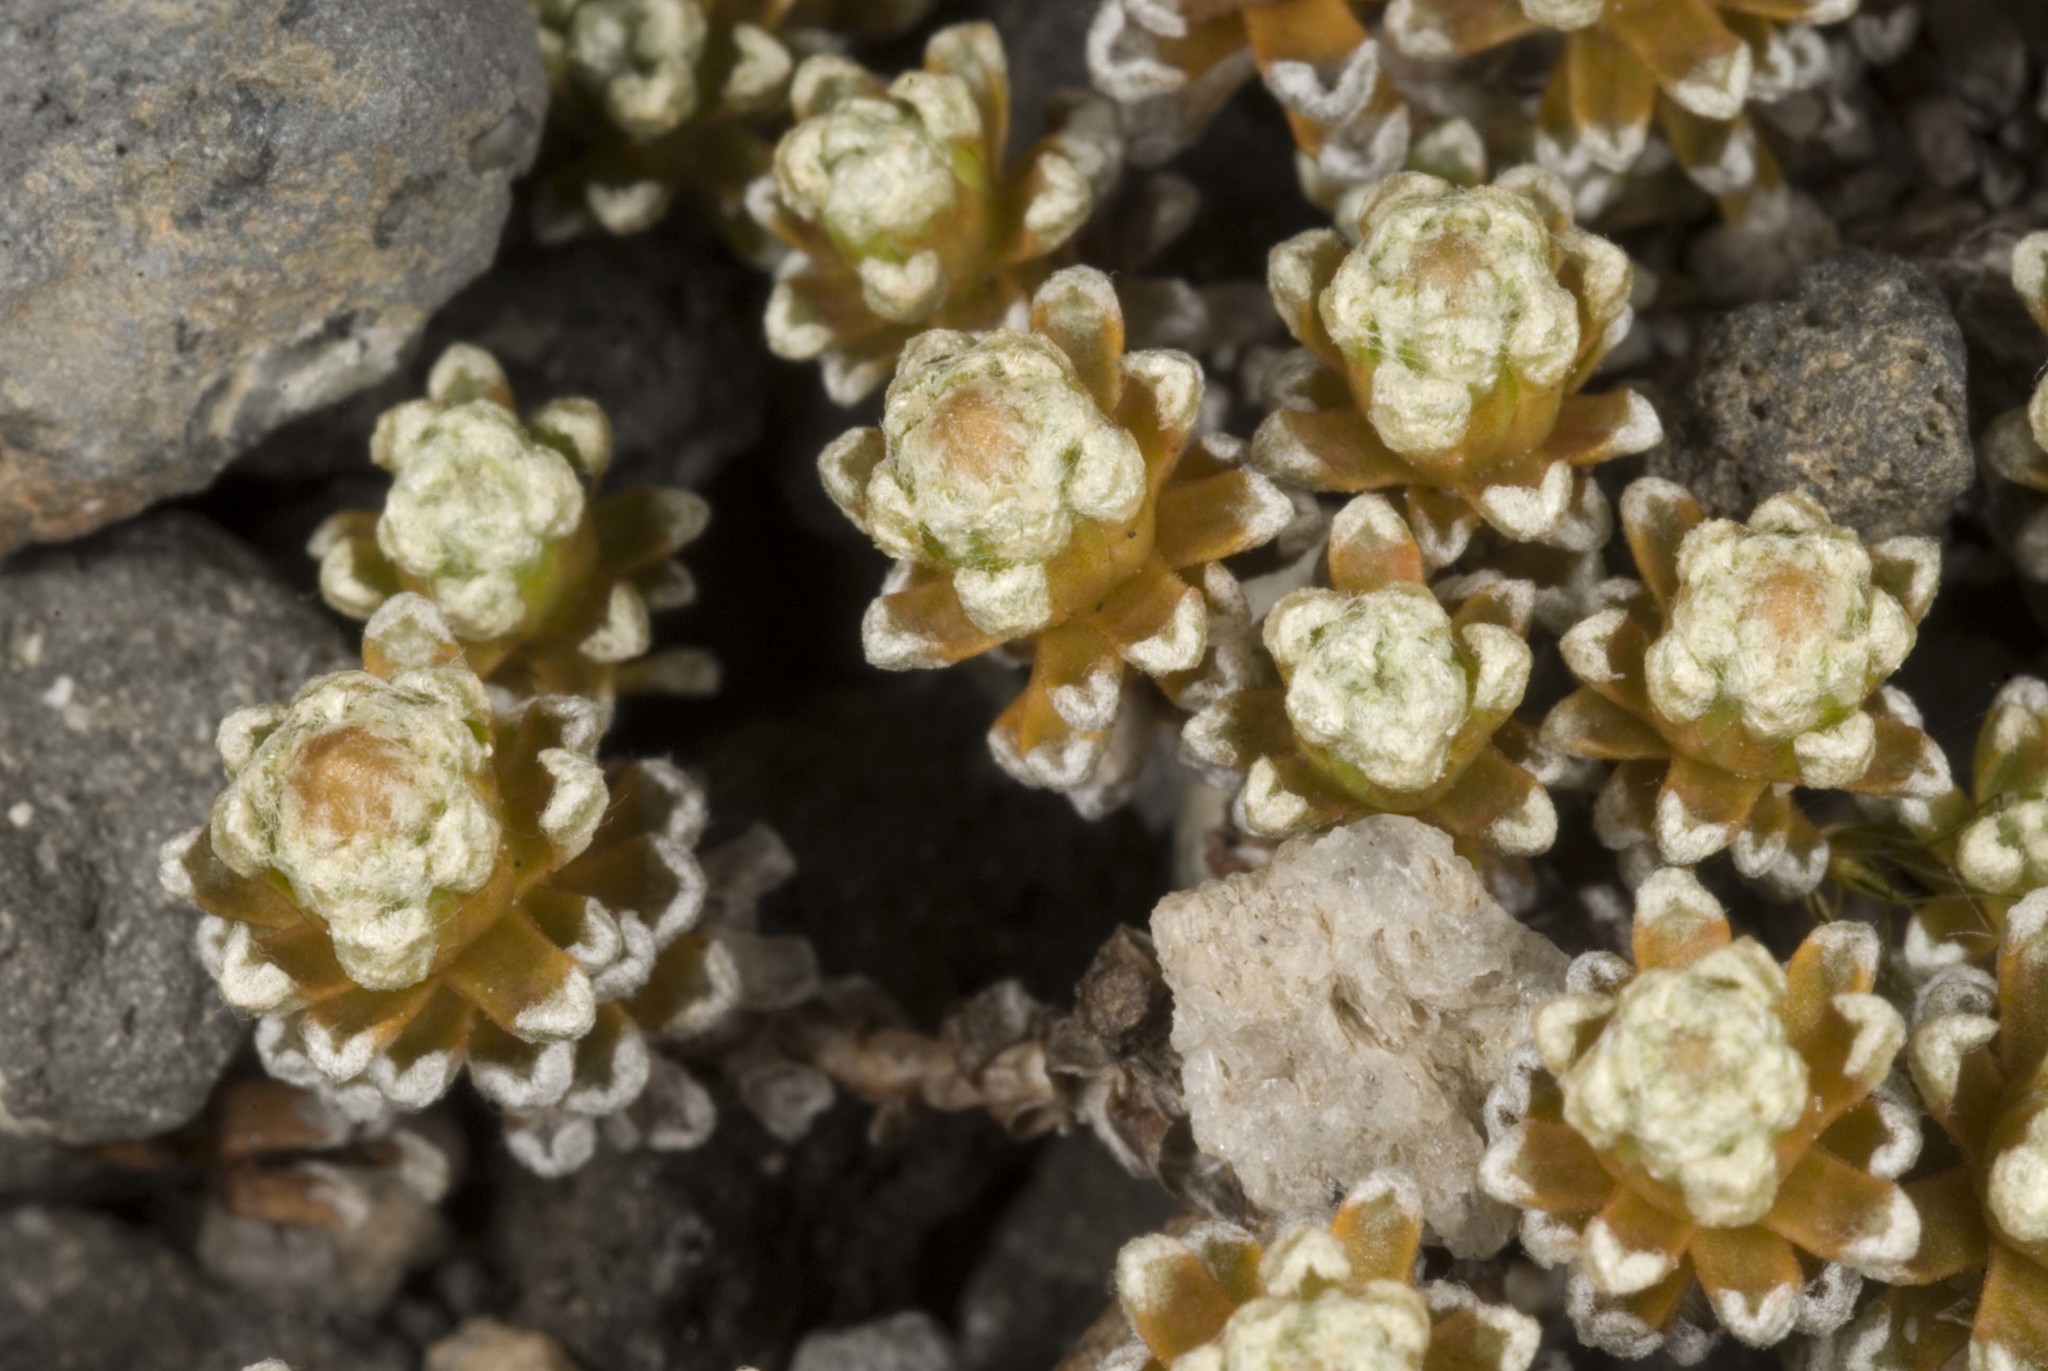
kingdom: Plantae
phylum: Tracheophyta
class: Magnoliopsida
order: Asterales
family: Asteraceae
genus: Raoulia
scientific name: Raoulia albosericea
